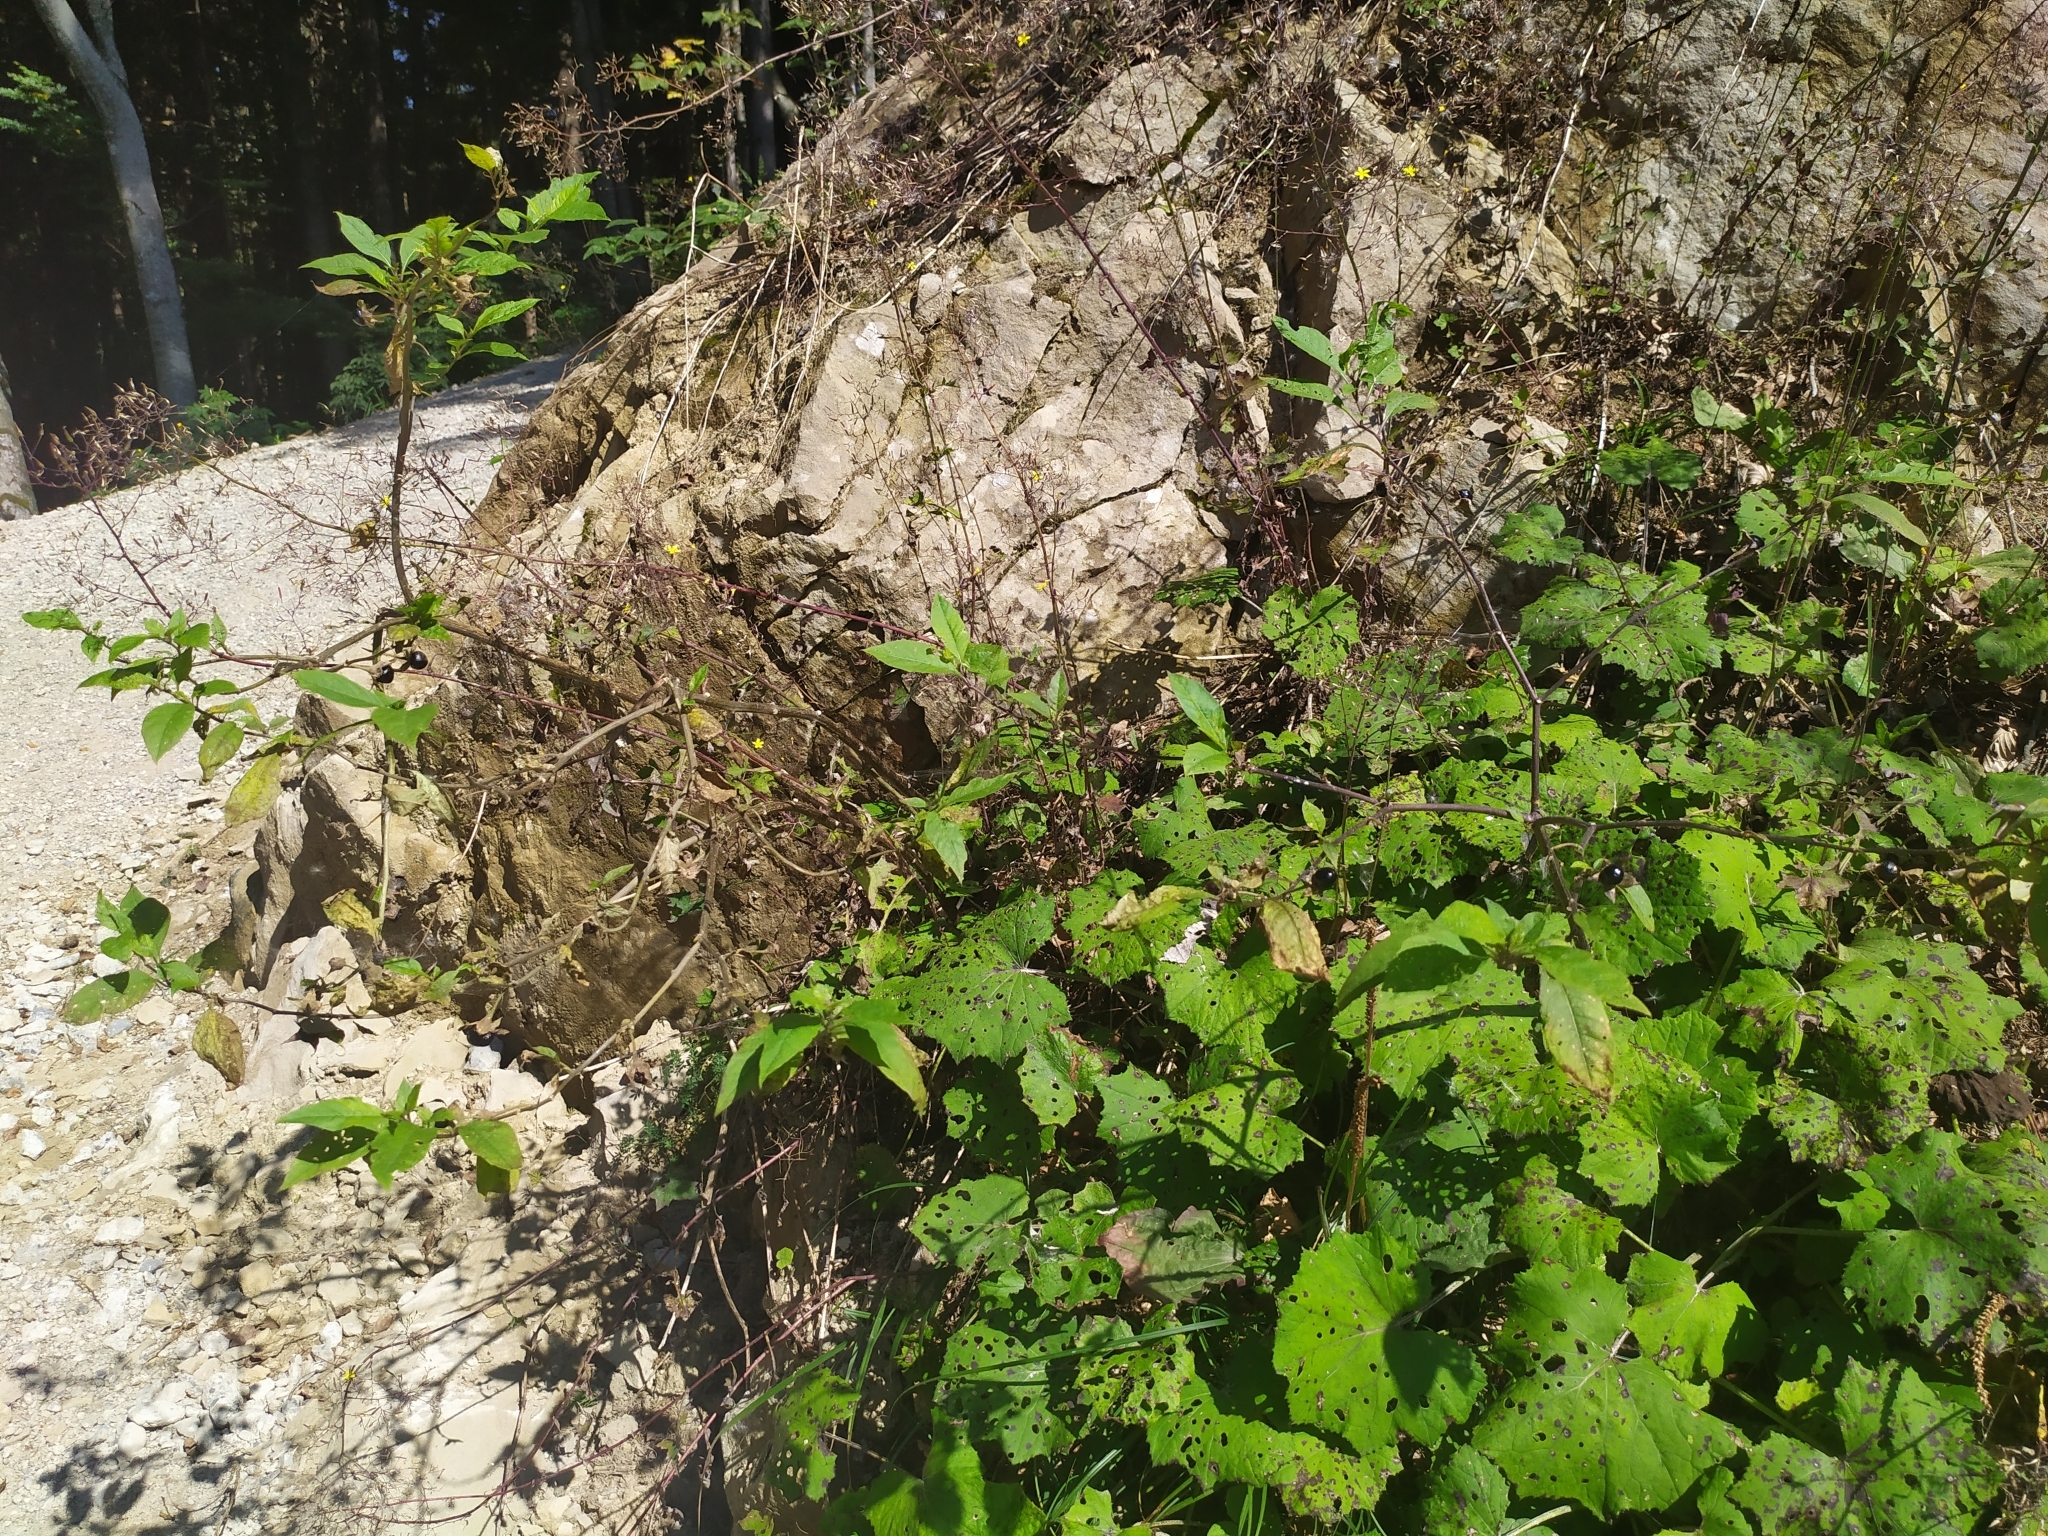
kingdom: Plantae
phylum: Tracheophyta
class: Magnoliopsida
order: Solanales
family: Solanaceae
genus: Atropa
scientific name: Atropa belladonna
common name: Deadly nightshade
